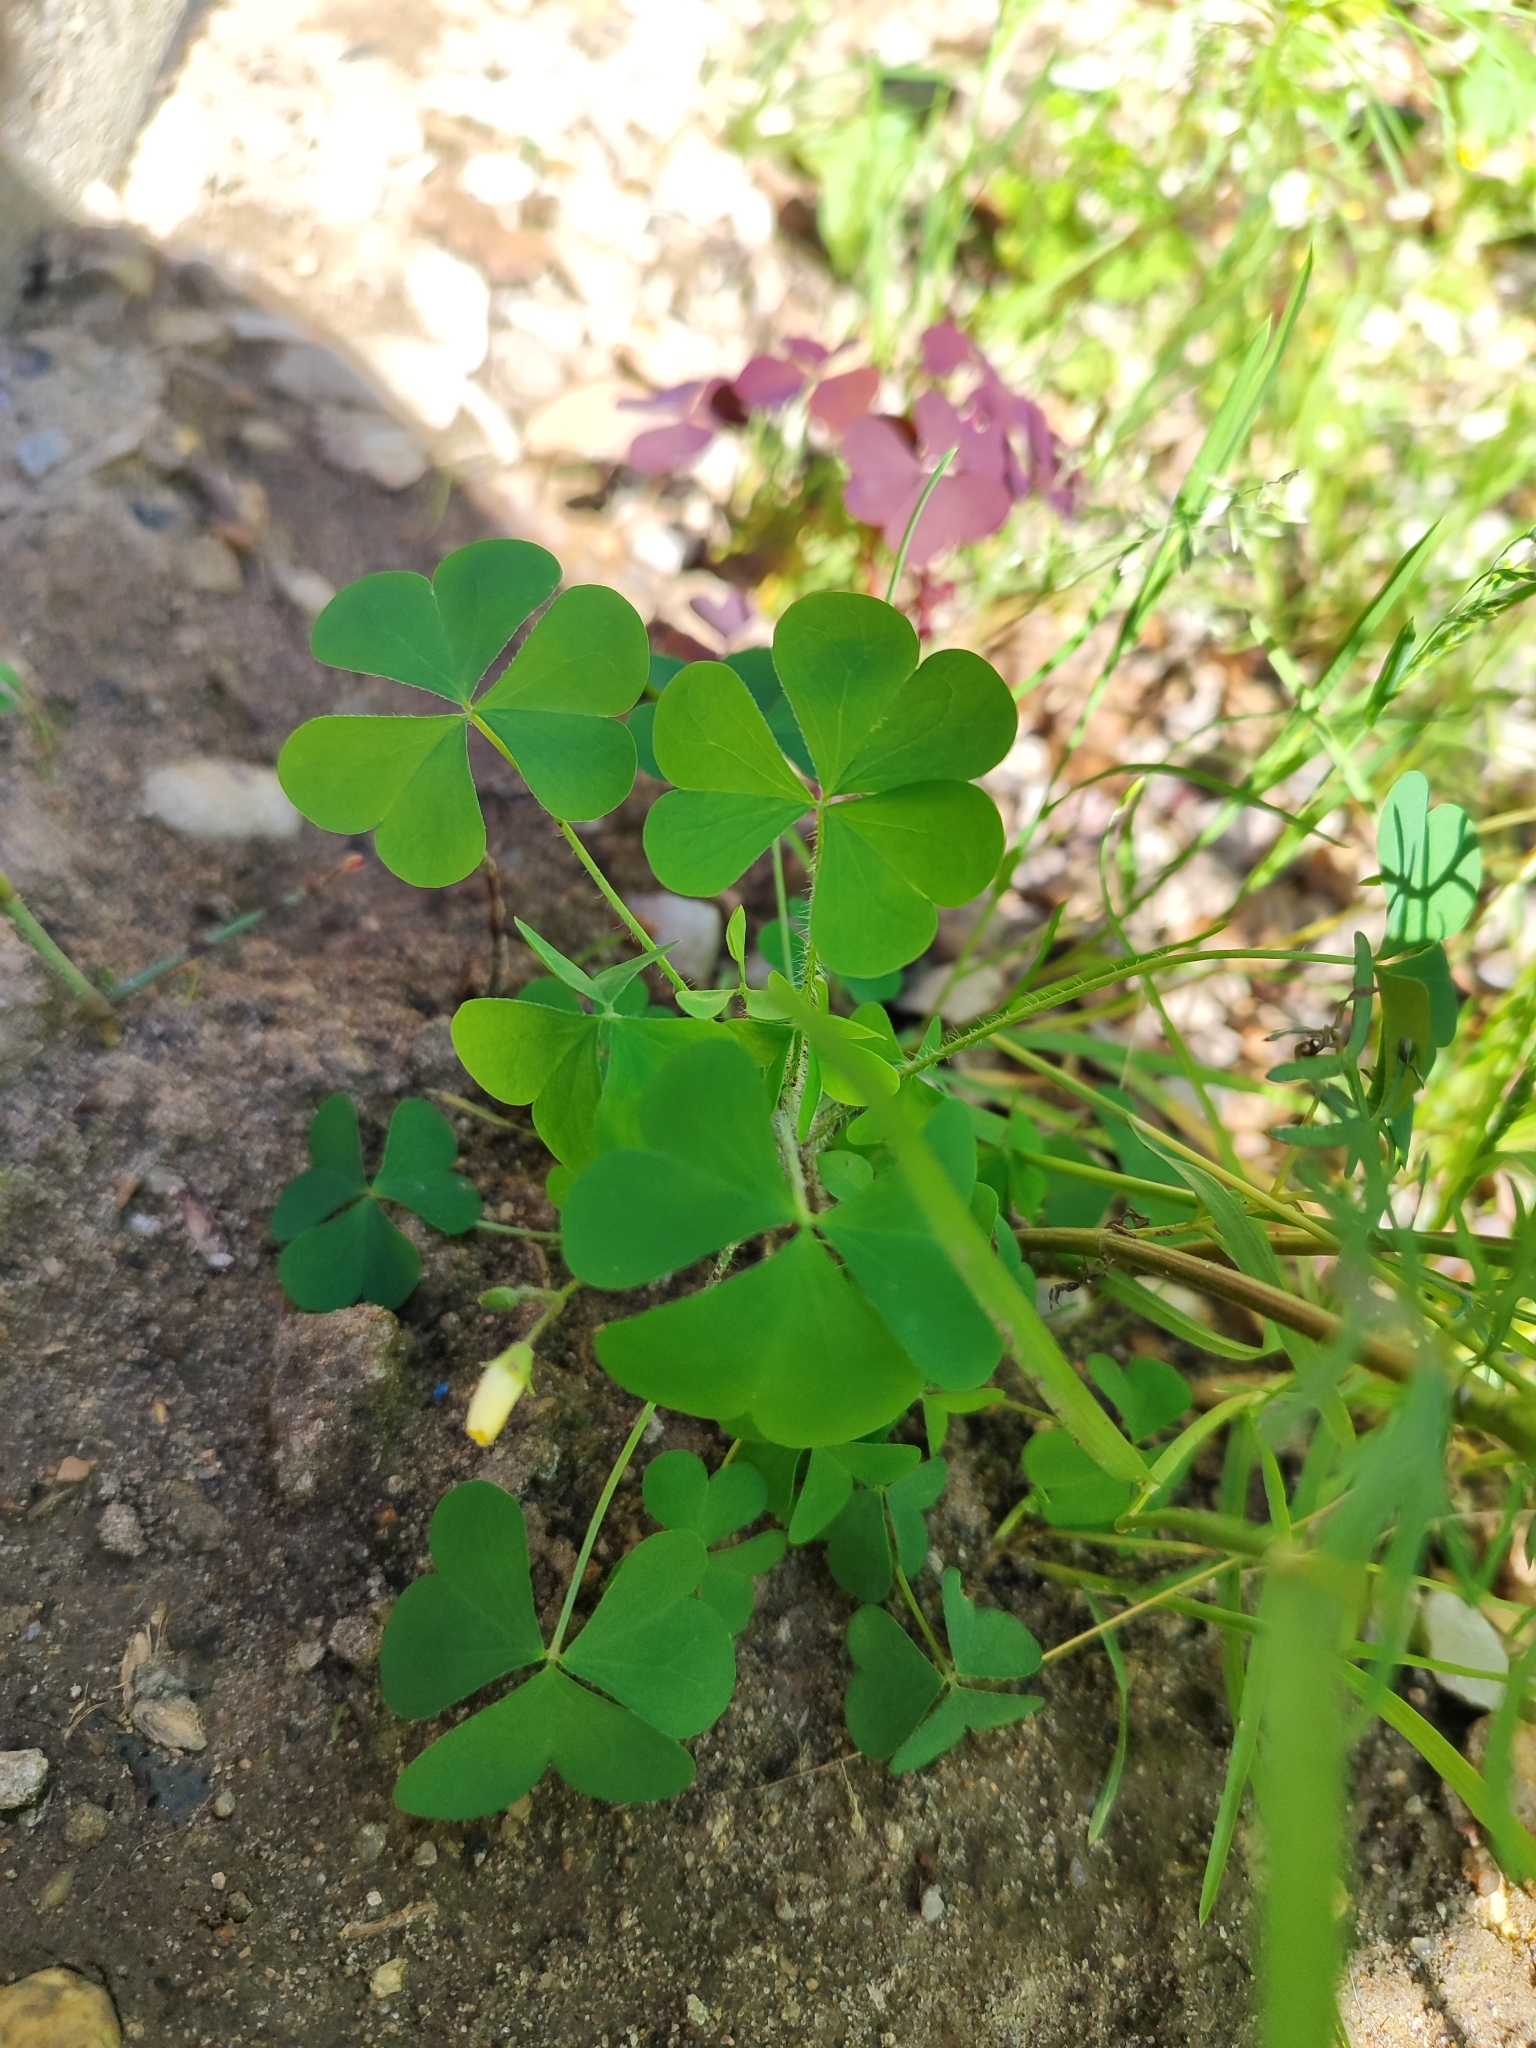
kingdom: Plantae
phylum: Tracheophyta
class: Magnoliopsida
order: Oxalidales
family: Oxalidaceae
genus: Oxalis
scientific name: Oxalis stricta
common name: Upright yellow-sorrel
